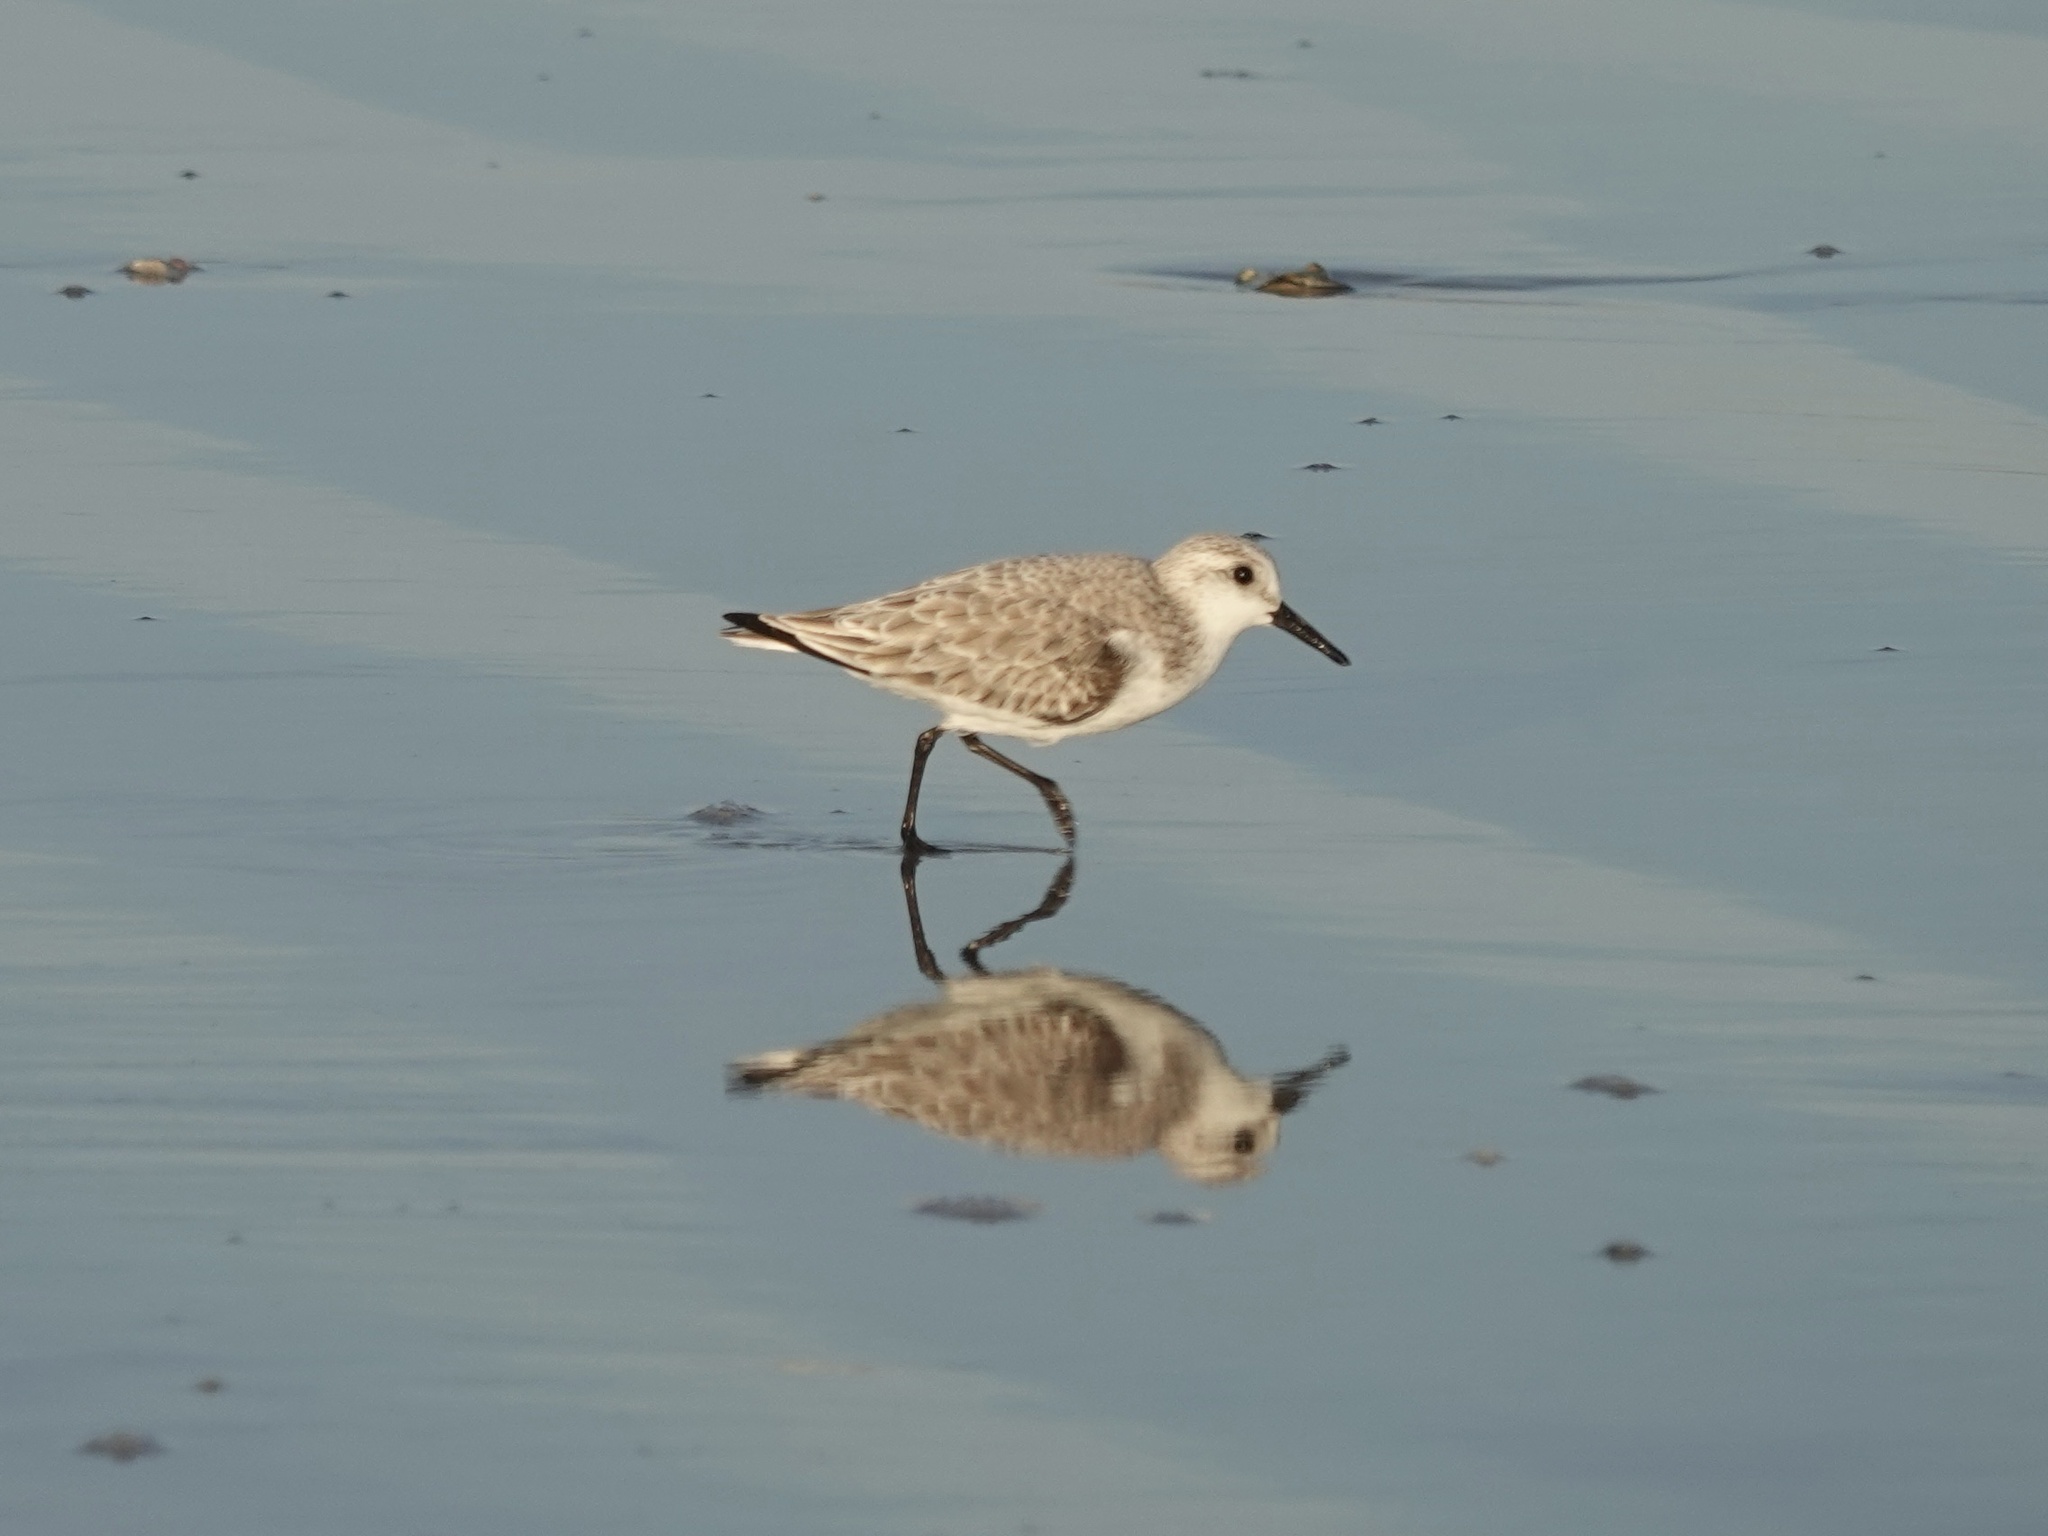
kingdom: Animalia
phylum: Chordata
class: Aves
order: Charadriiformes
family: Scolopacidae
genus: Calidris
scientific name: Calidris alba
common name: Sanderling
